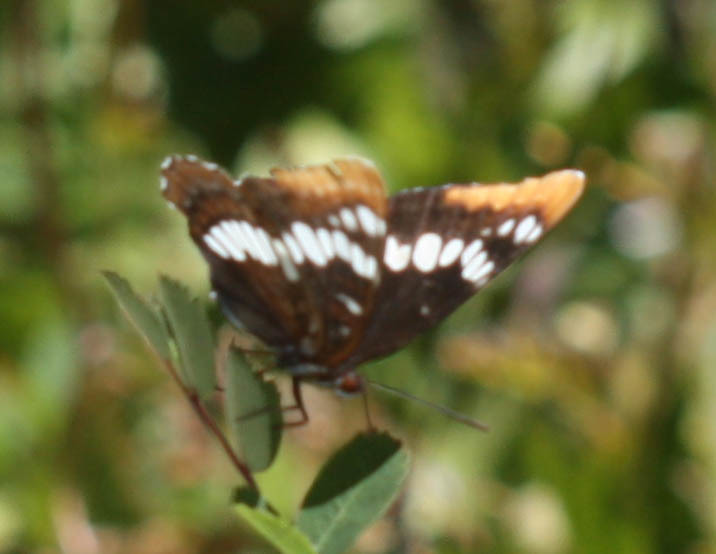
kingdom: Animalia
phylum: Arthropoda
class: Insecta
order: Lepidoptera
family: Nymphalidae
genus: Limenitis
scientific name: Limenitis lorquini
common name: Lorquin's admiral
